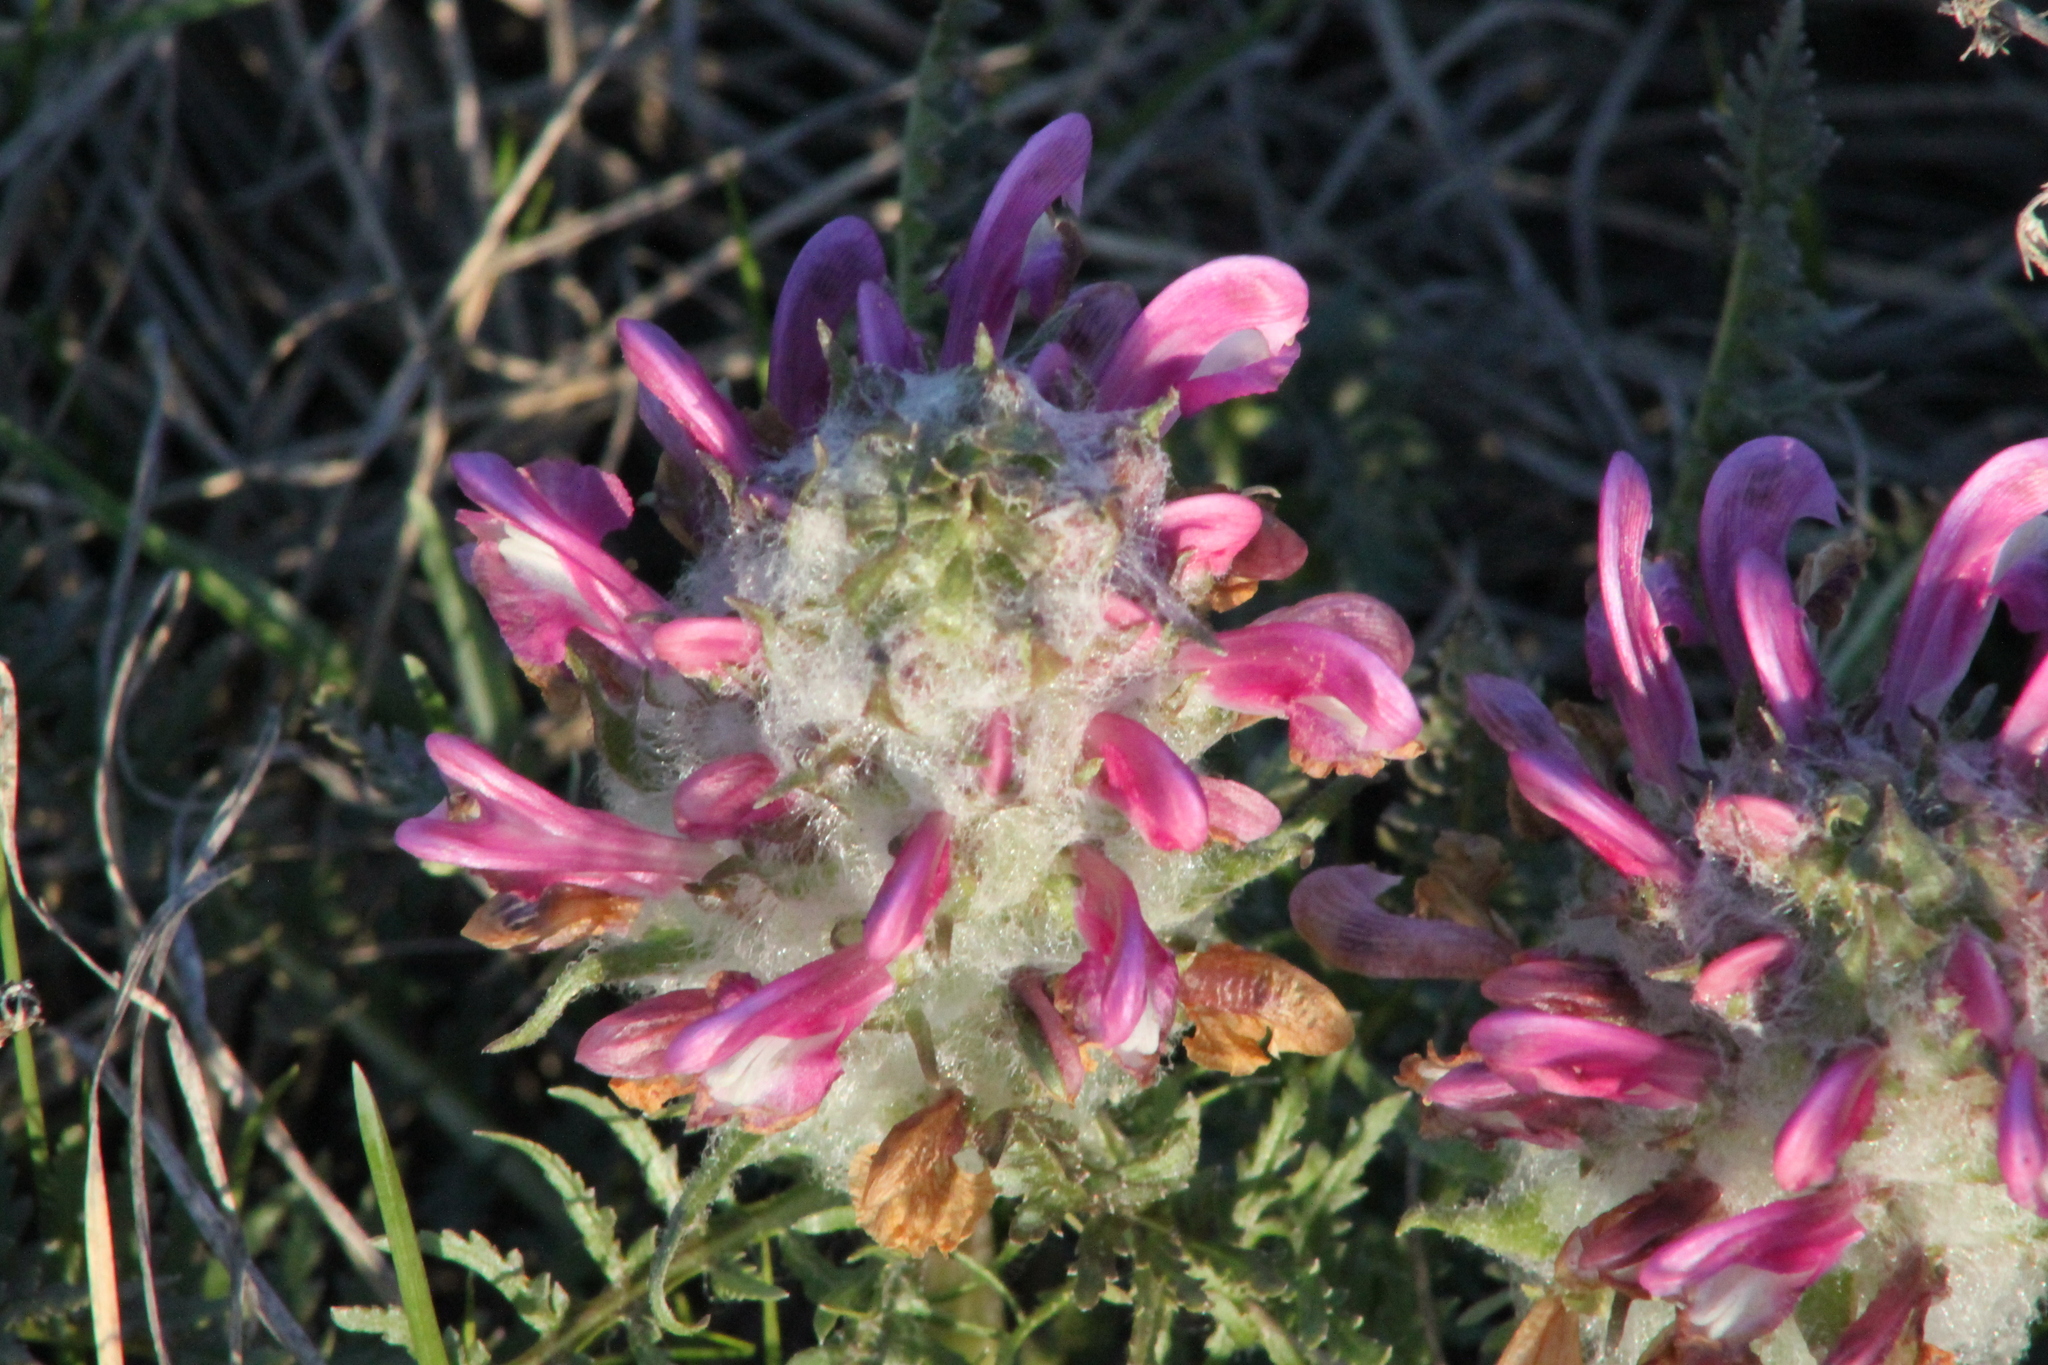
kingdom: Plantae
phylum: Tracheophyta
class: Magnoliopsida
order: Lamiales
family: Orobanchaceae
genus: Pedicularis
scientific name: Pedicularis dasystachys
